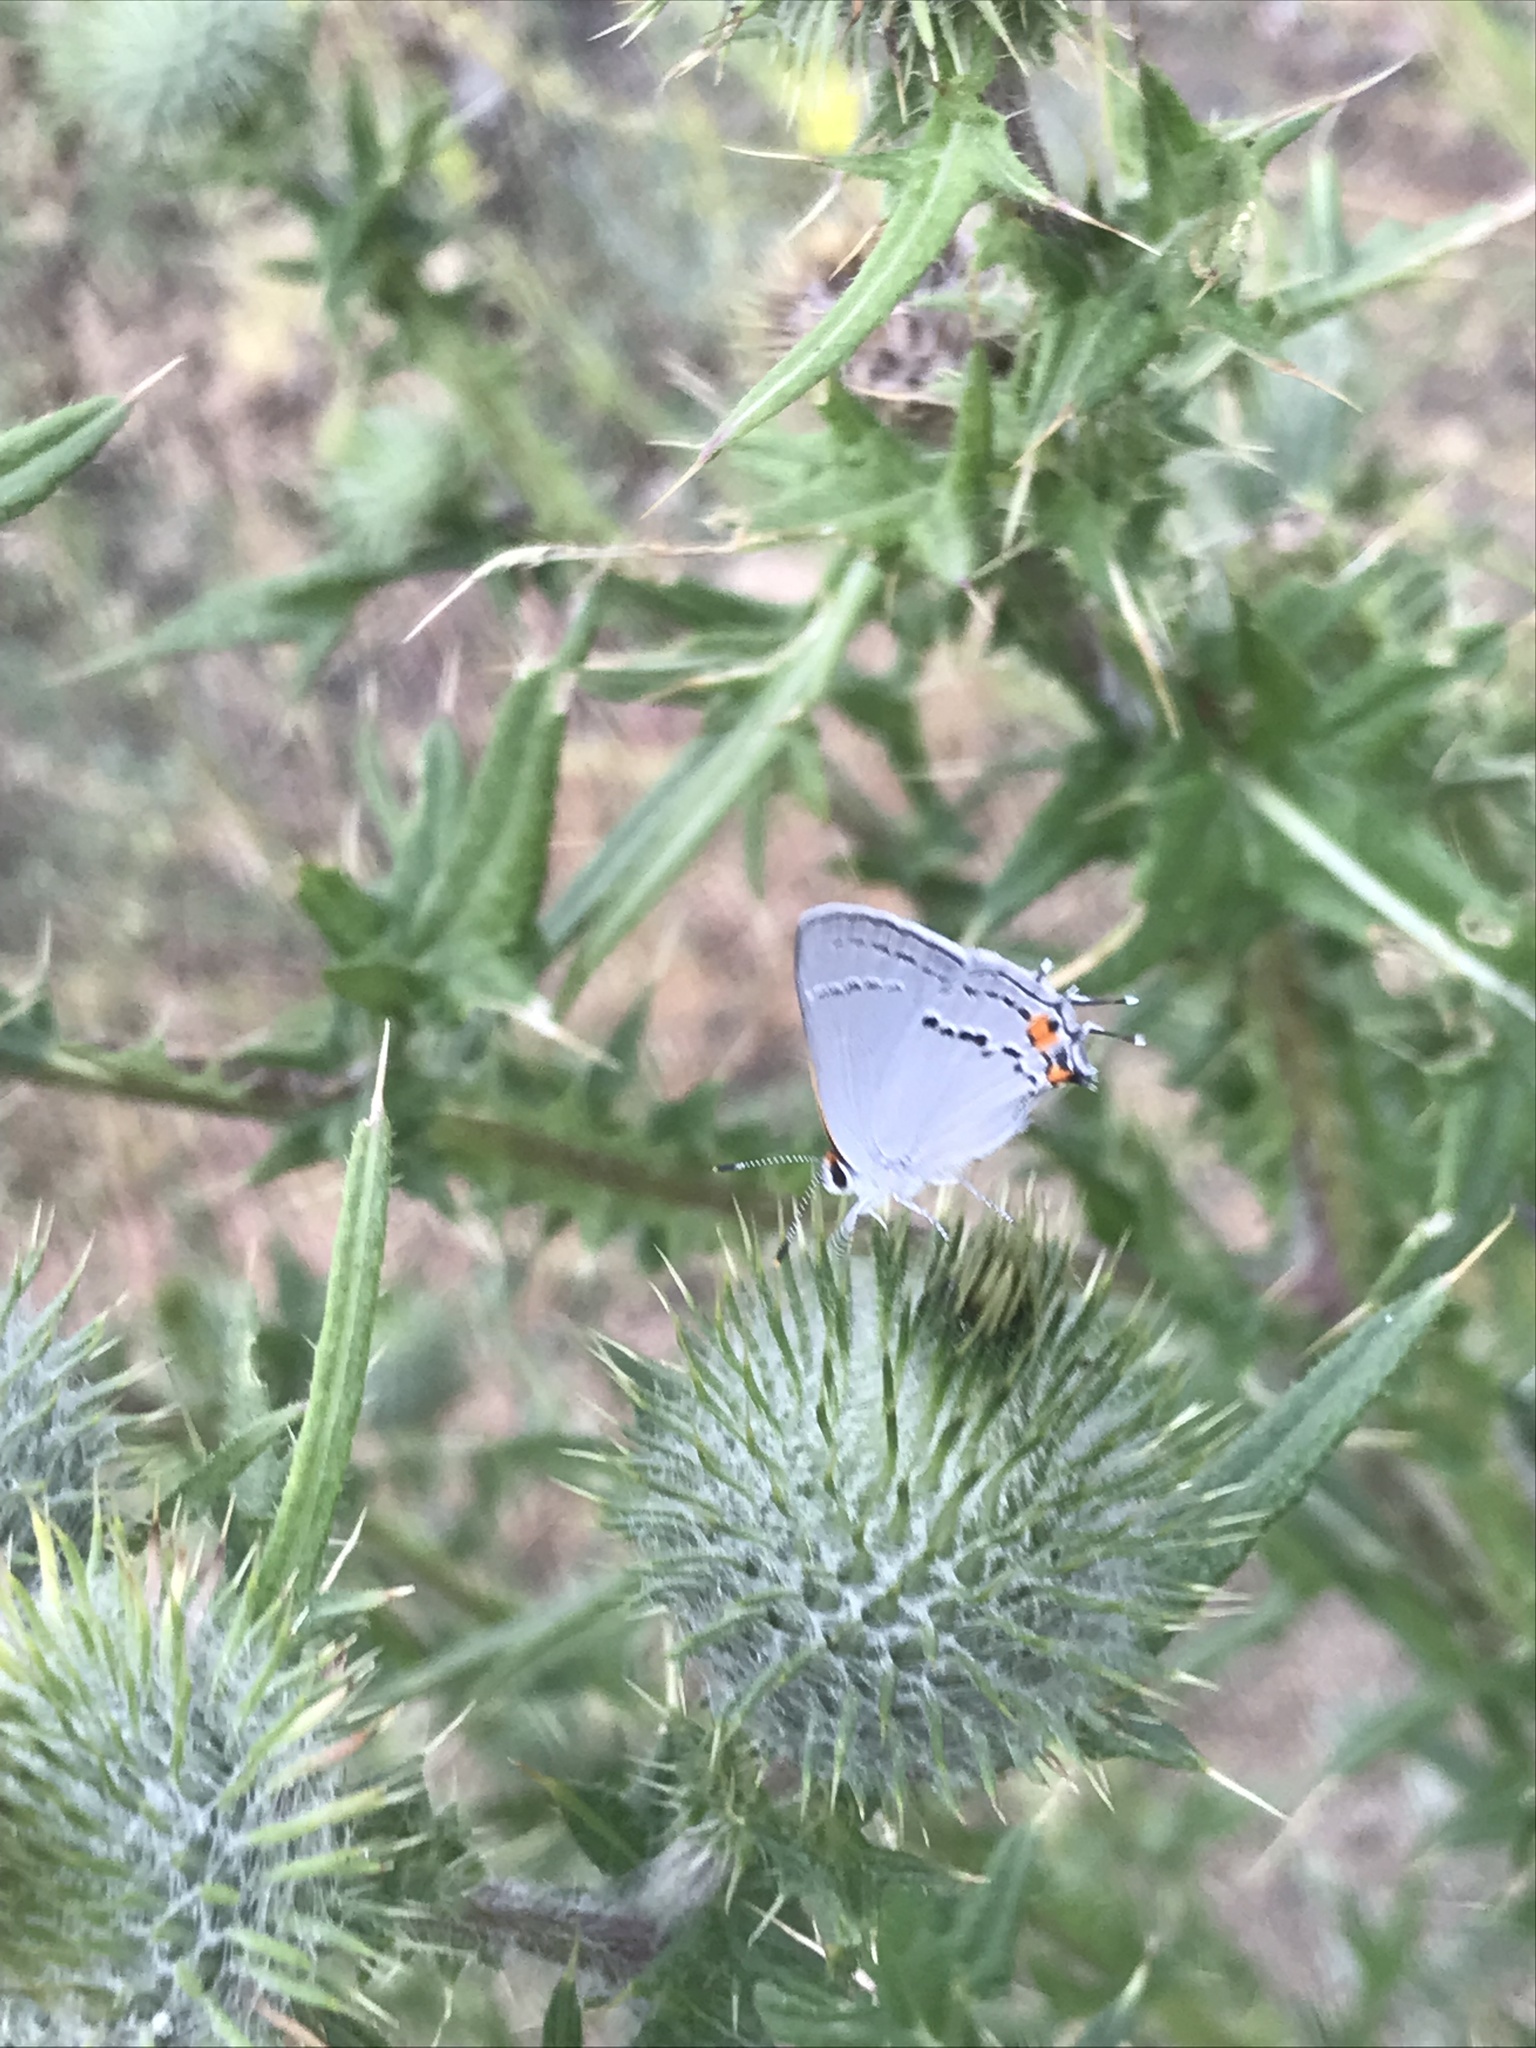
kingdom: Animalia
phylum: Arthropoda
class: Insecta
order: Lepidoptera
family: Lycaenidae
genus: Strymon
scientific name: Strymon melinus
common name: Gray hairstreak
